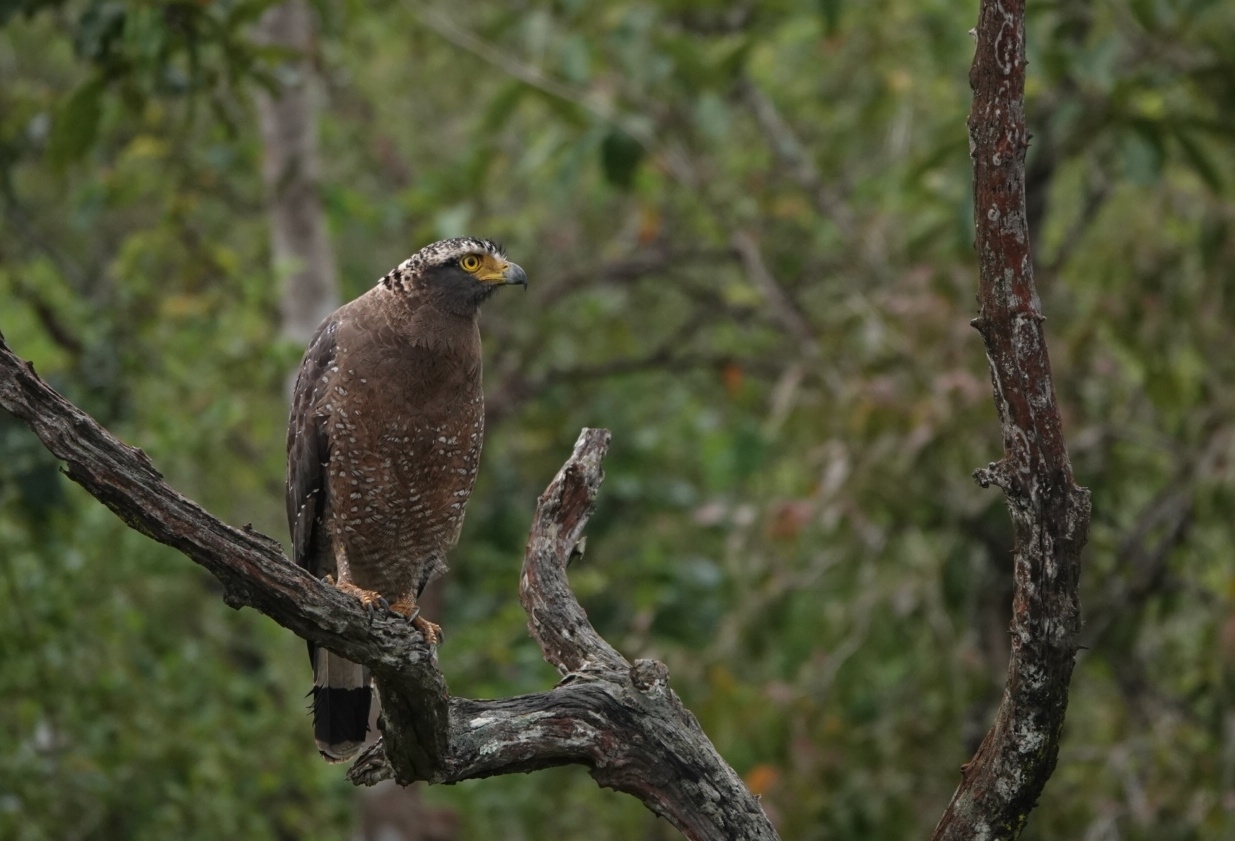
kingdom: Animalia
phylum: Chordata
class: Aves
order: Accipitriformes
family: Accipitridae
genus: Spilornis
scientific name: Spilornis cheela
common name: Crested serpent eagle
